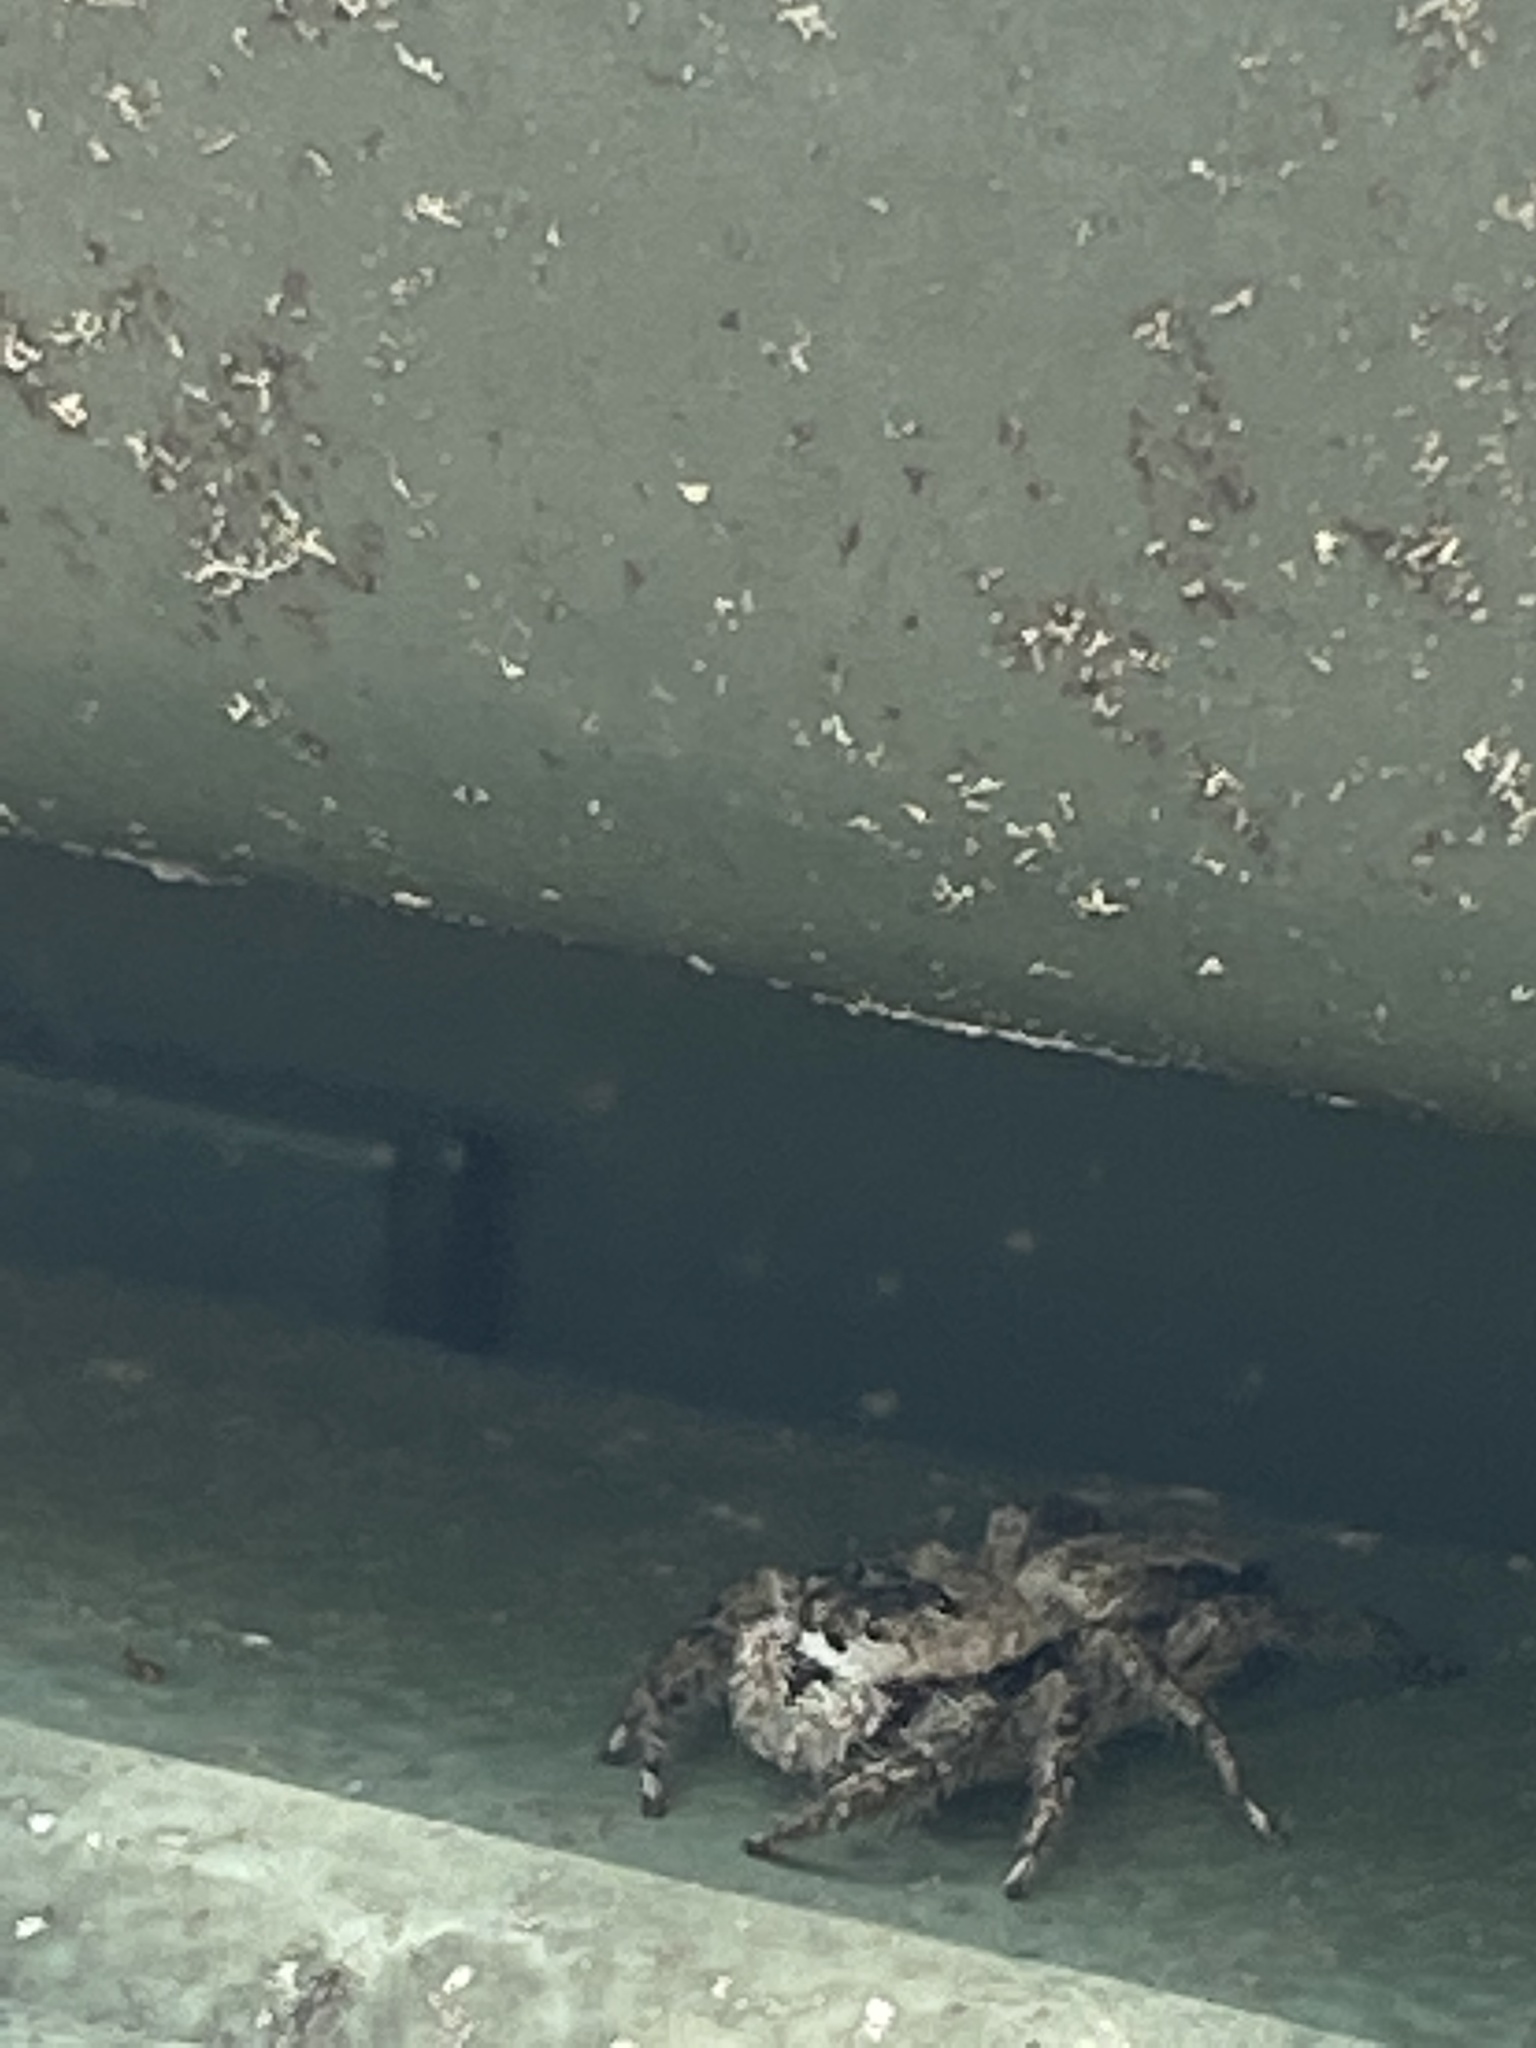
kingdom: Animalia
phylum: Arthropoda
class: Arachnida
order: Araneae
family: Salticidae
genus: Platycryptus
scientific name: Platycryptus undatus
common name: Tan jumping spider
